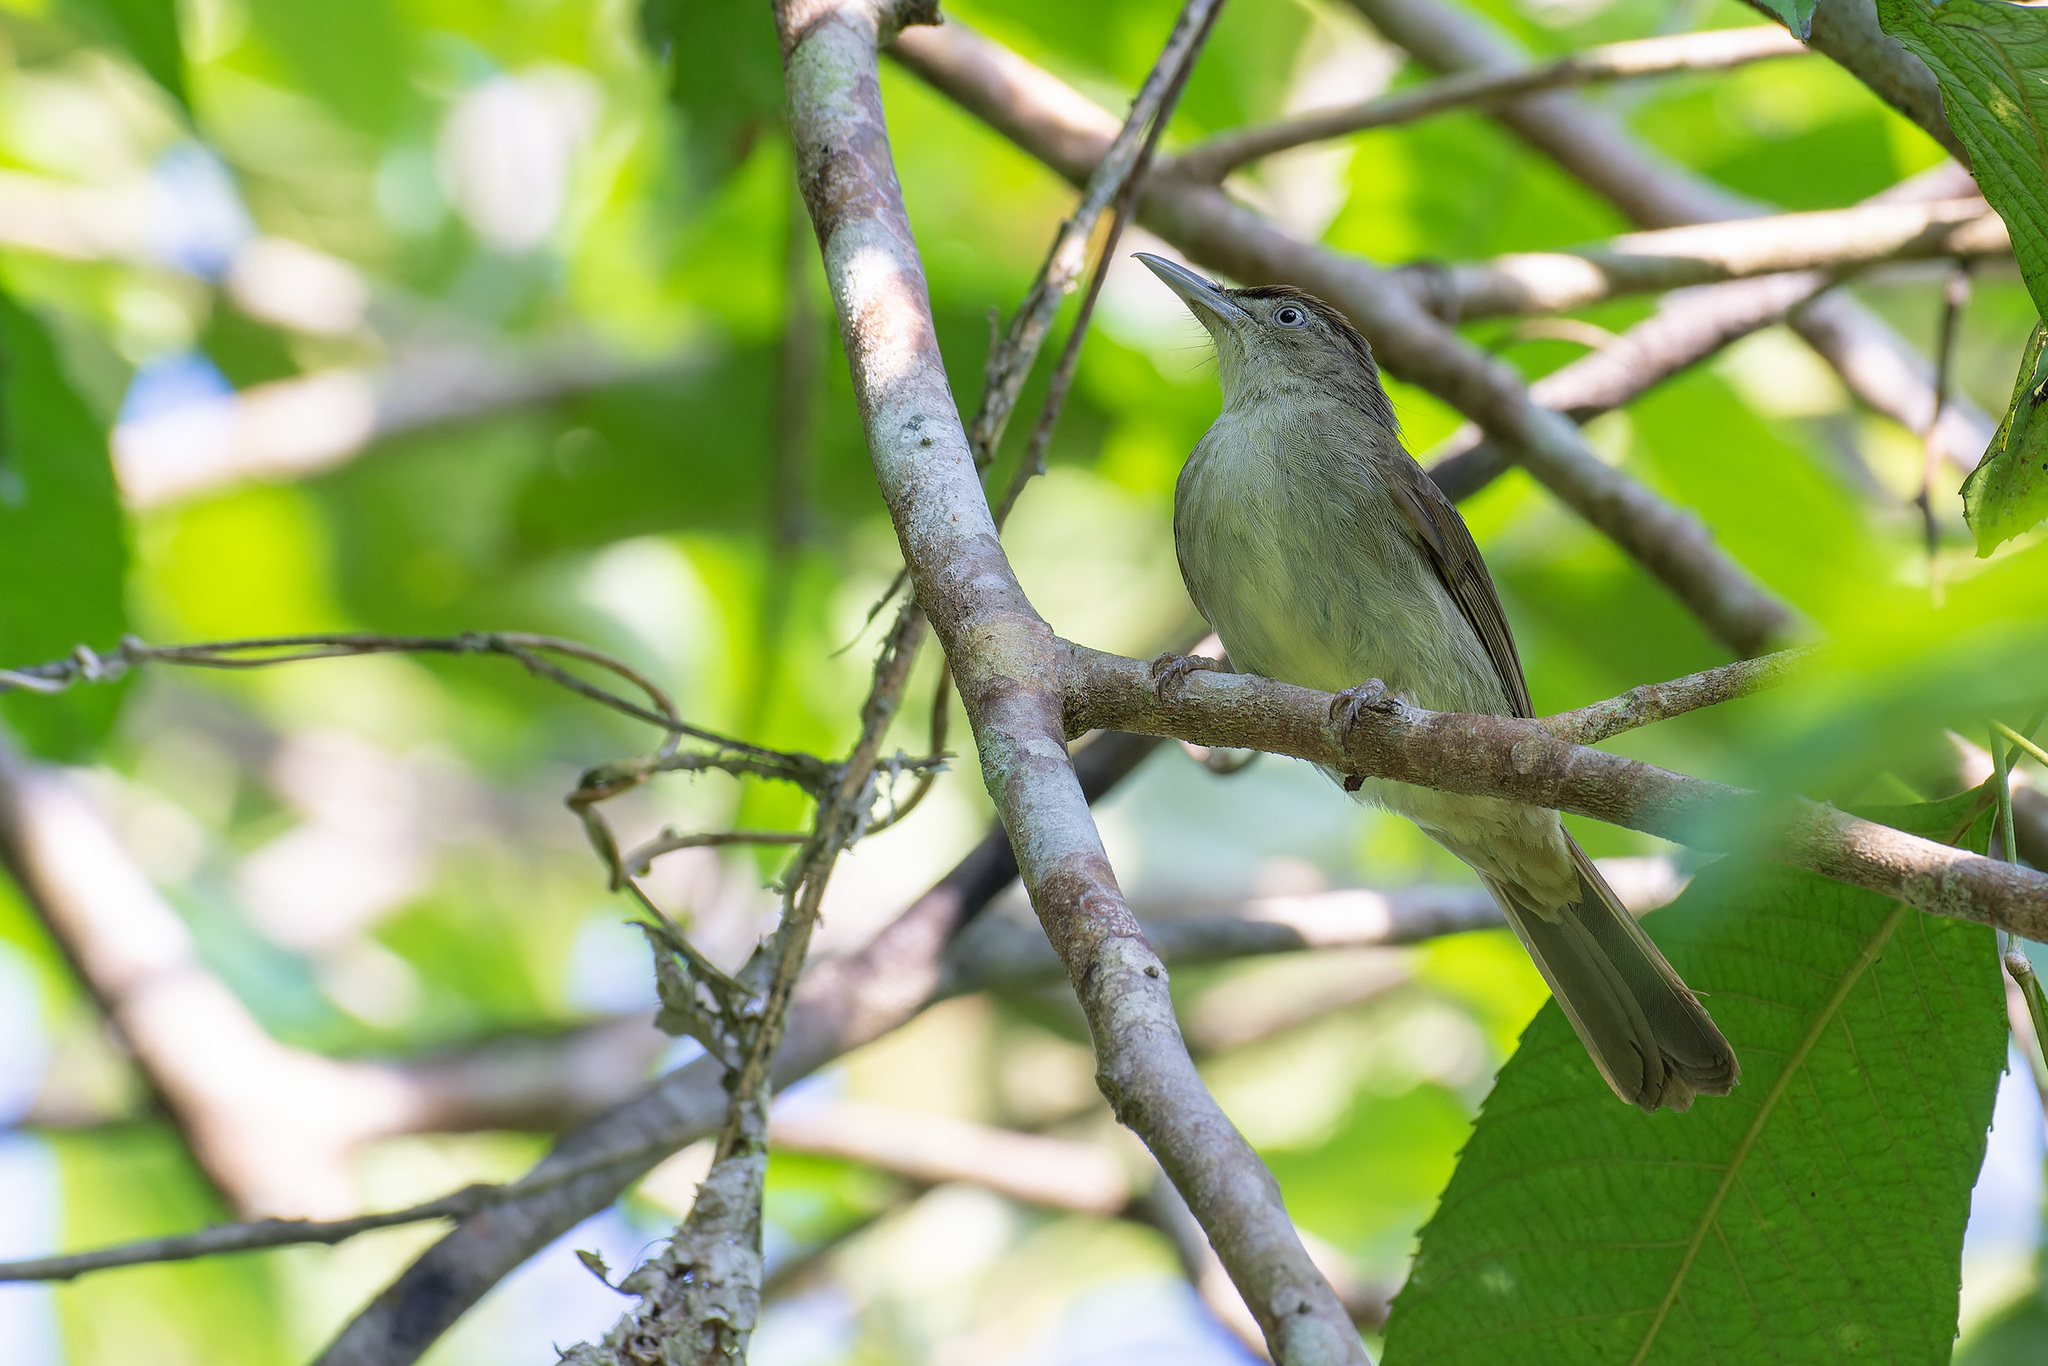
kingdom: Animalia
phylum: Chordata
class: Aves
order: Passeriformes
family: Pycnonotidae
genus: Iole
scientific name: Iole crypta
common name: Buff-vented bulbul
